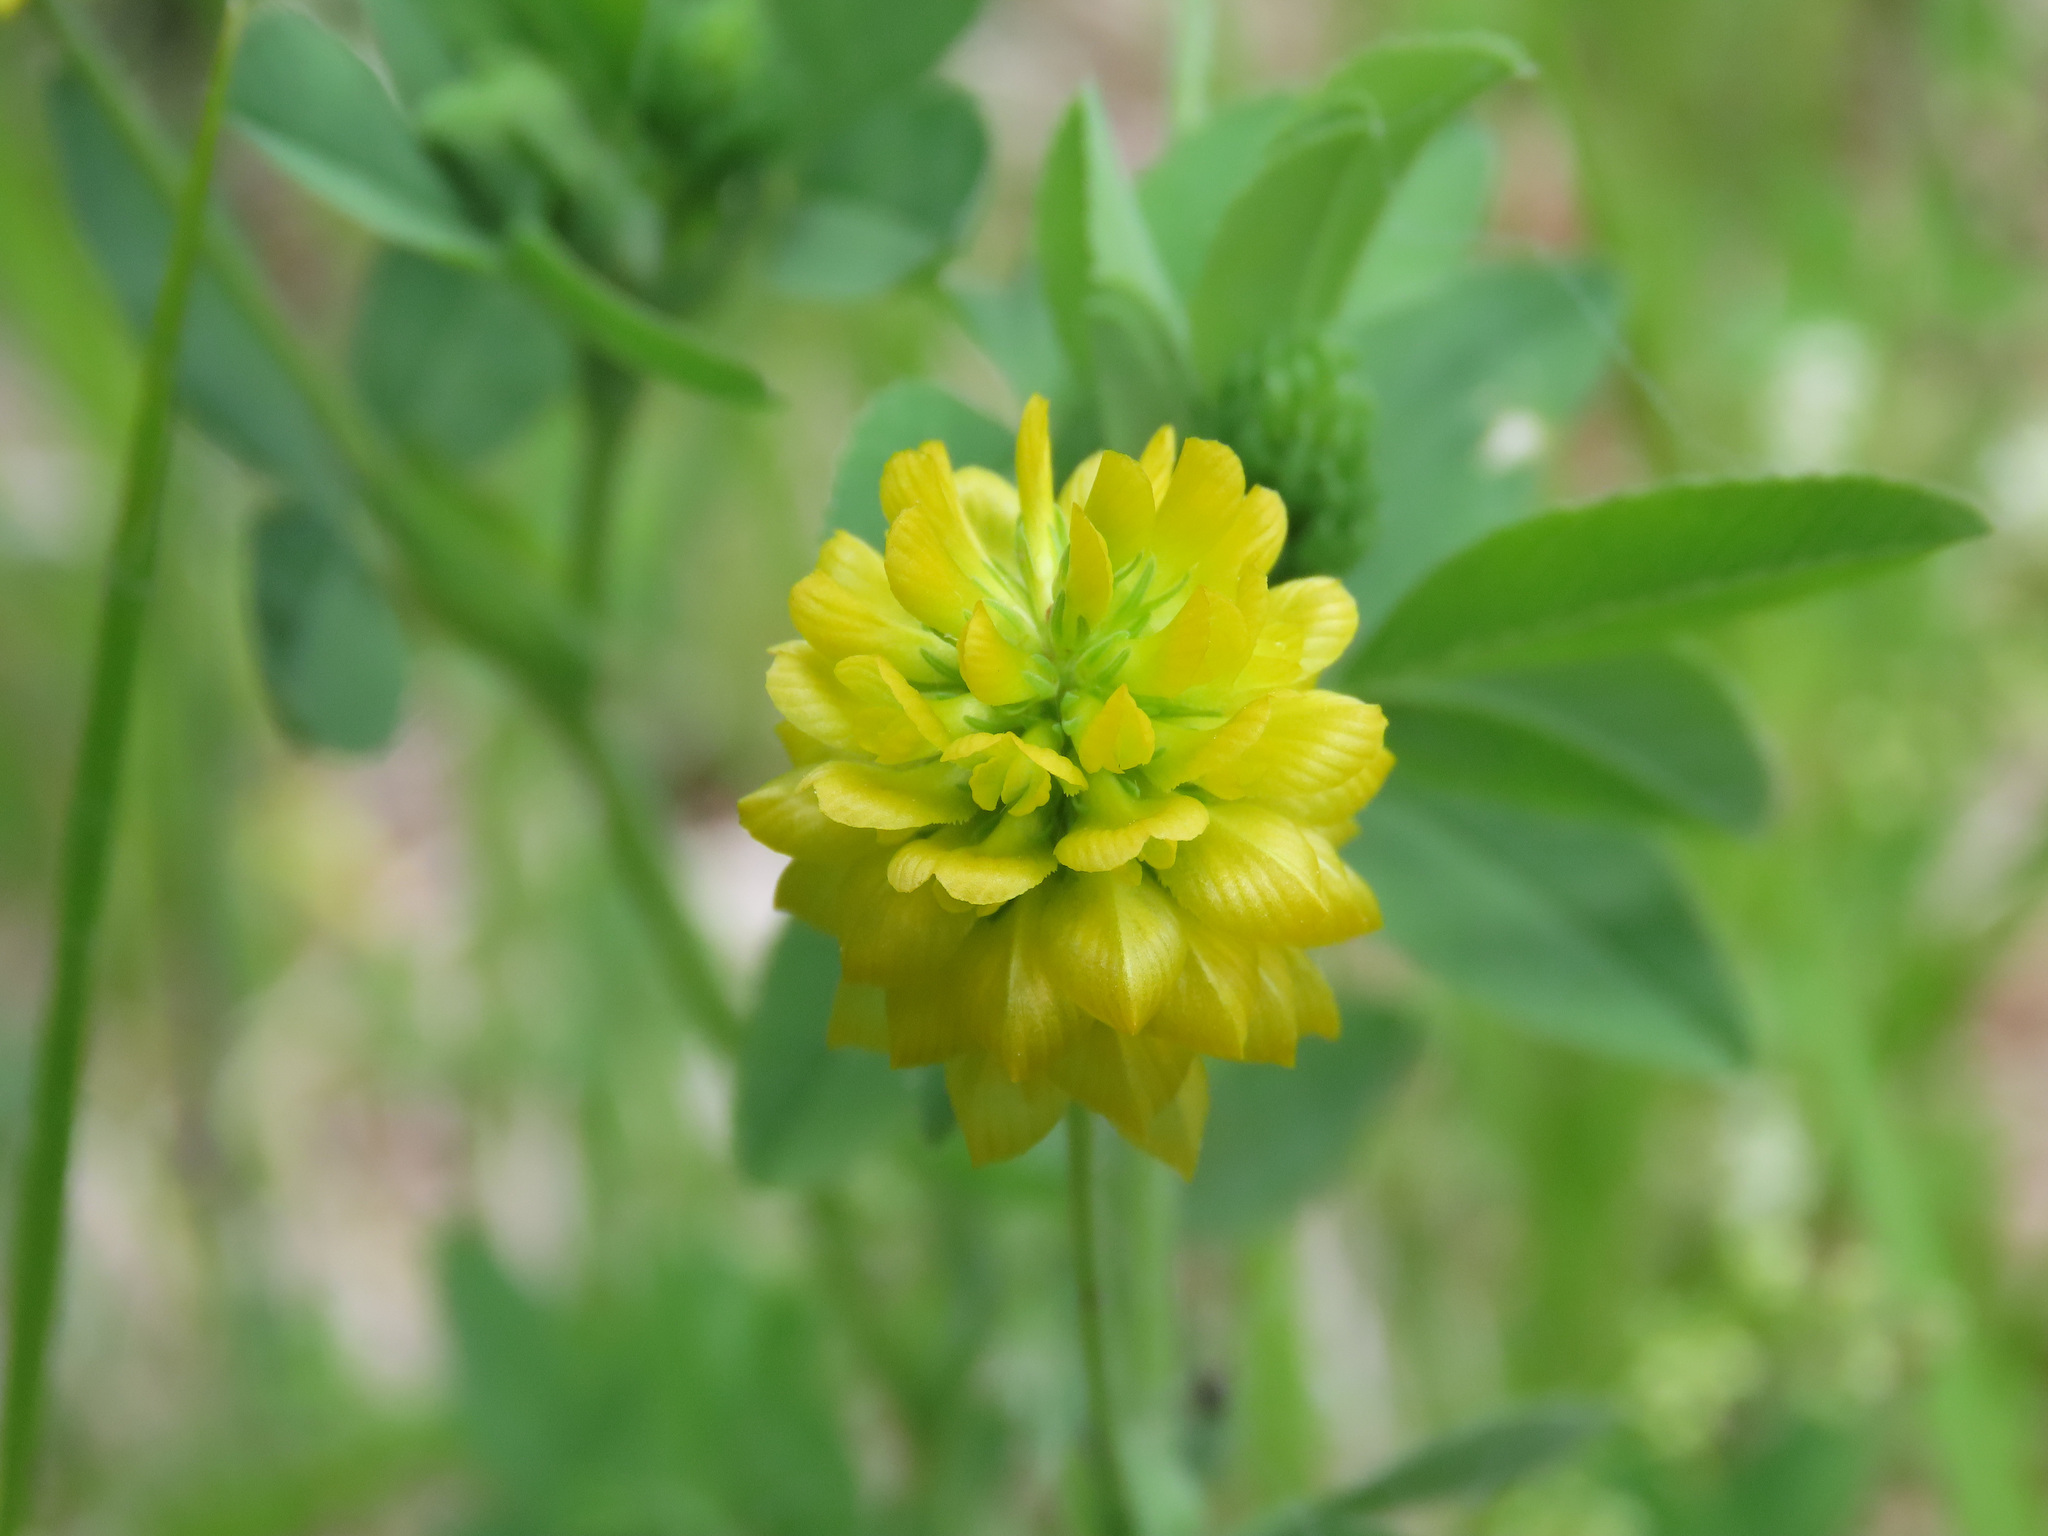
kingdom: Plantae
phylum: Tracheophyta
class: Magnoliopsida
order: Fabales
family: Fabaceae
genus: Trifolium
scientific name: Trifolium aureum
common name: Golden clover
